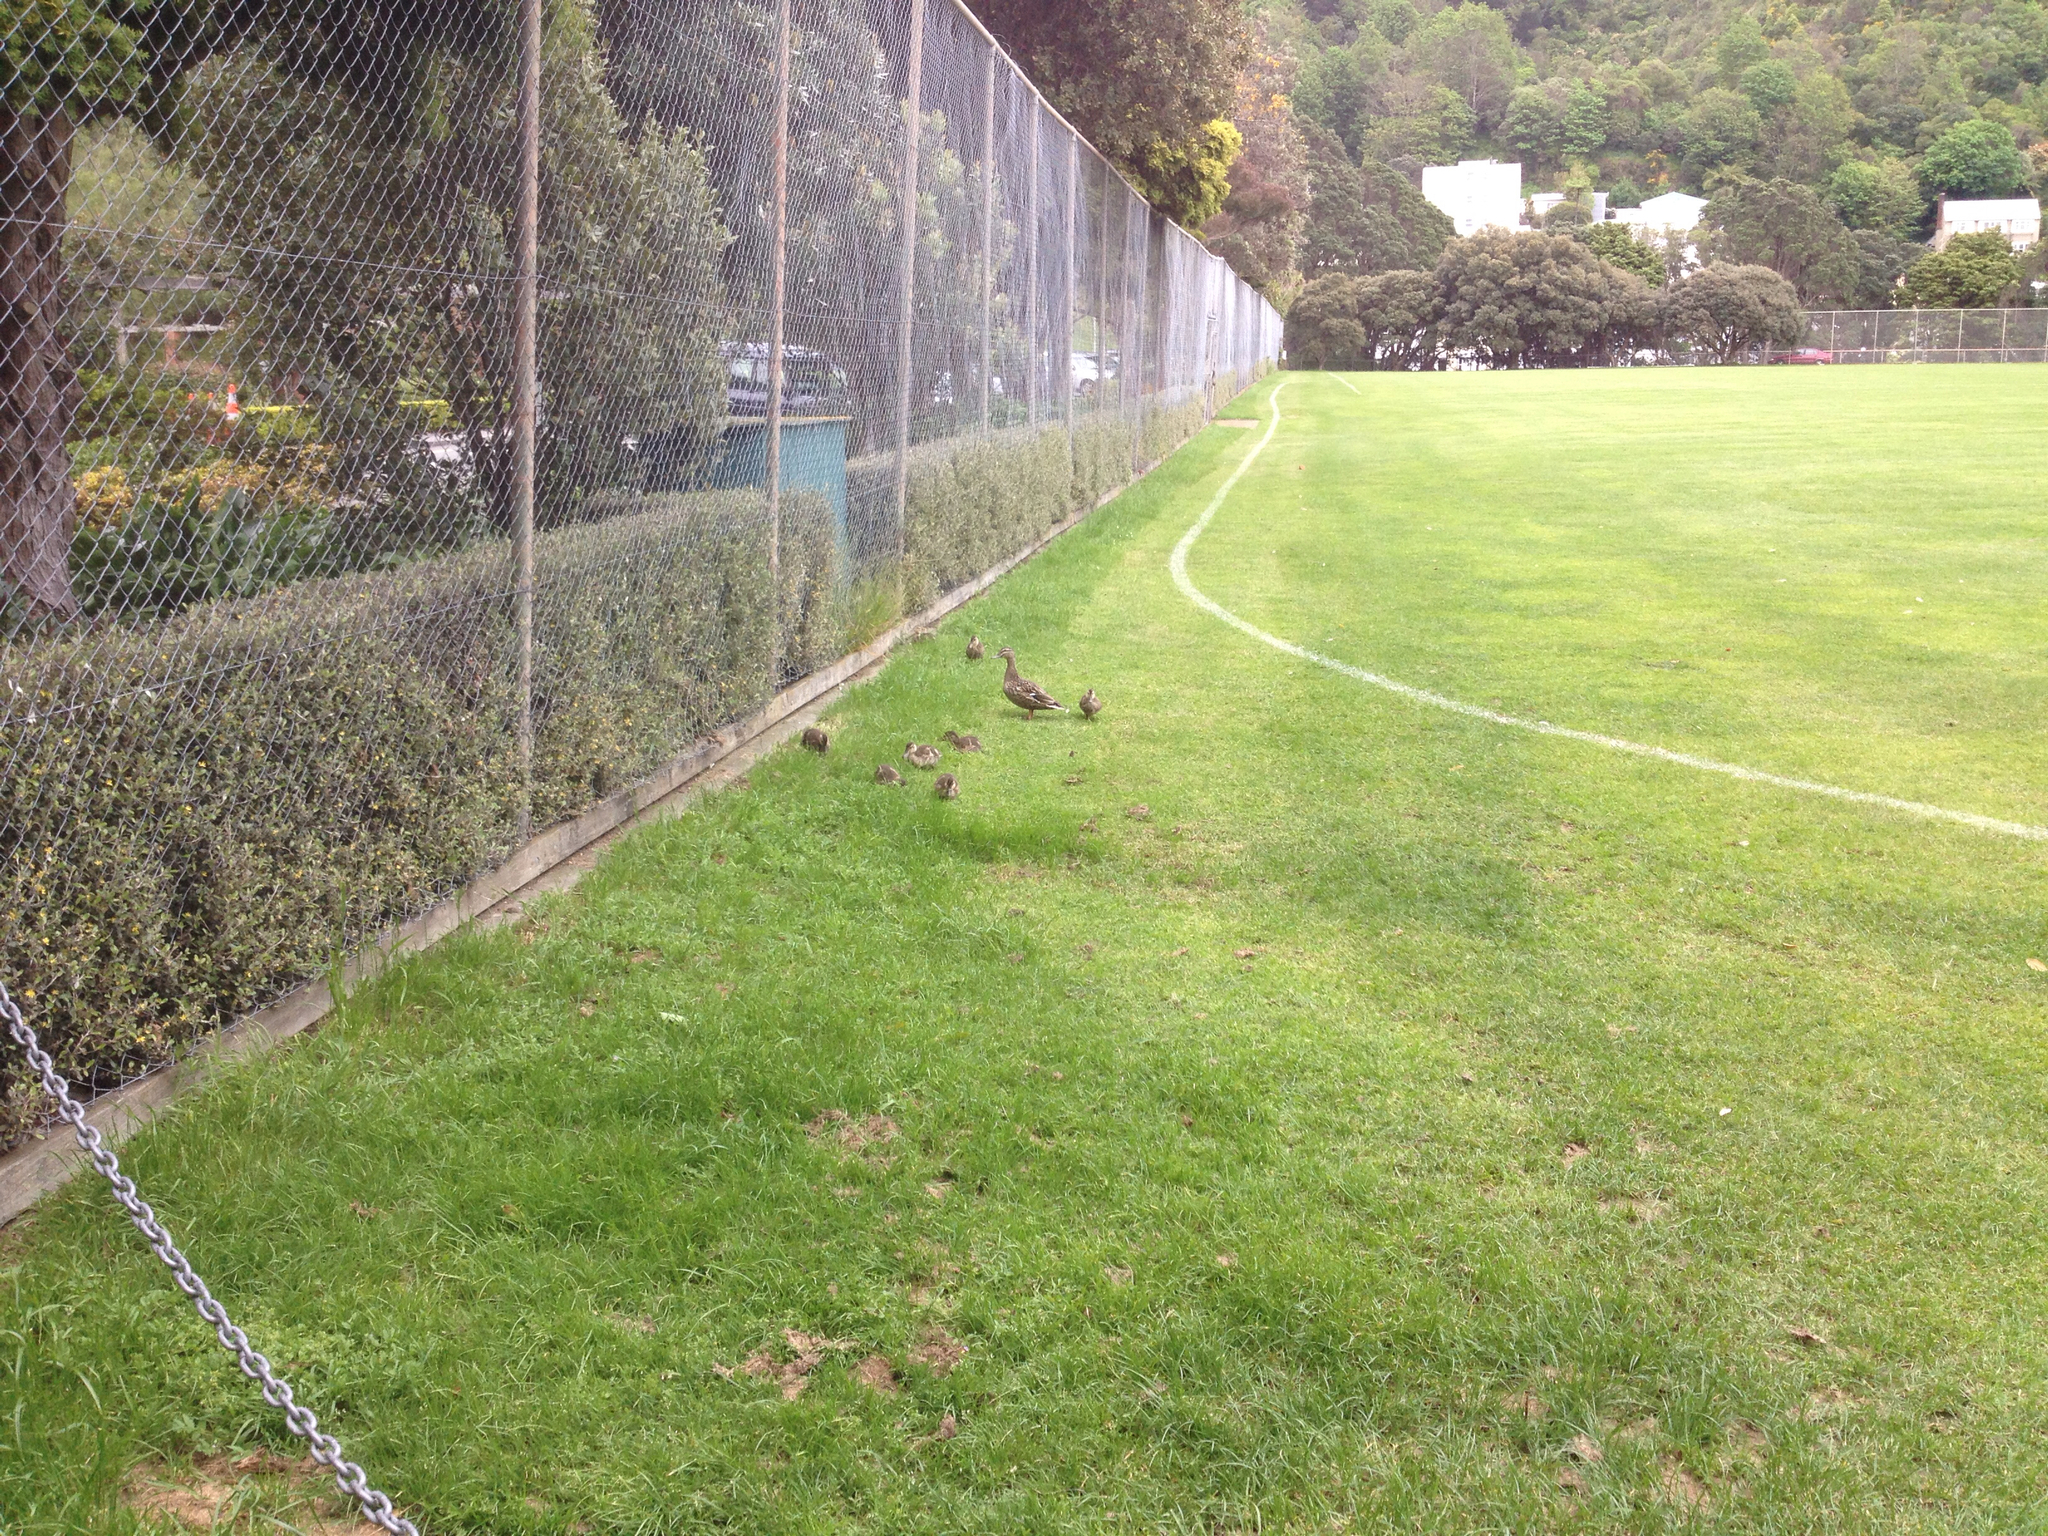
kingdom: Animalia
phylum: Chordata
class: Aves
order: Anseriformes
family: Anatidae
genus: Anas
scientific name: Anas
